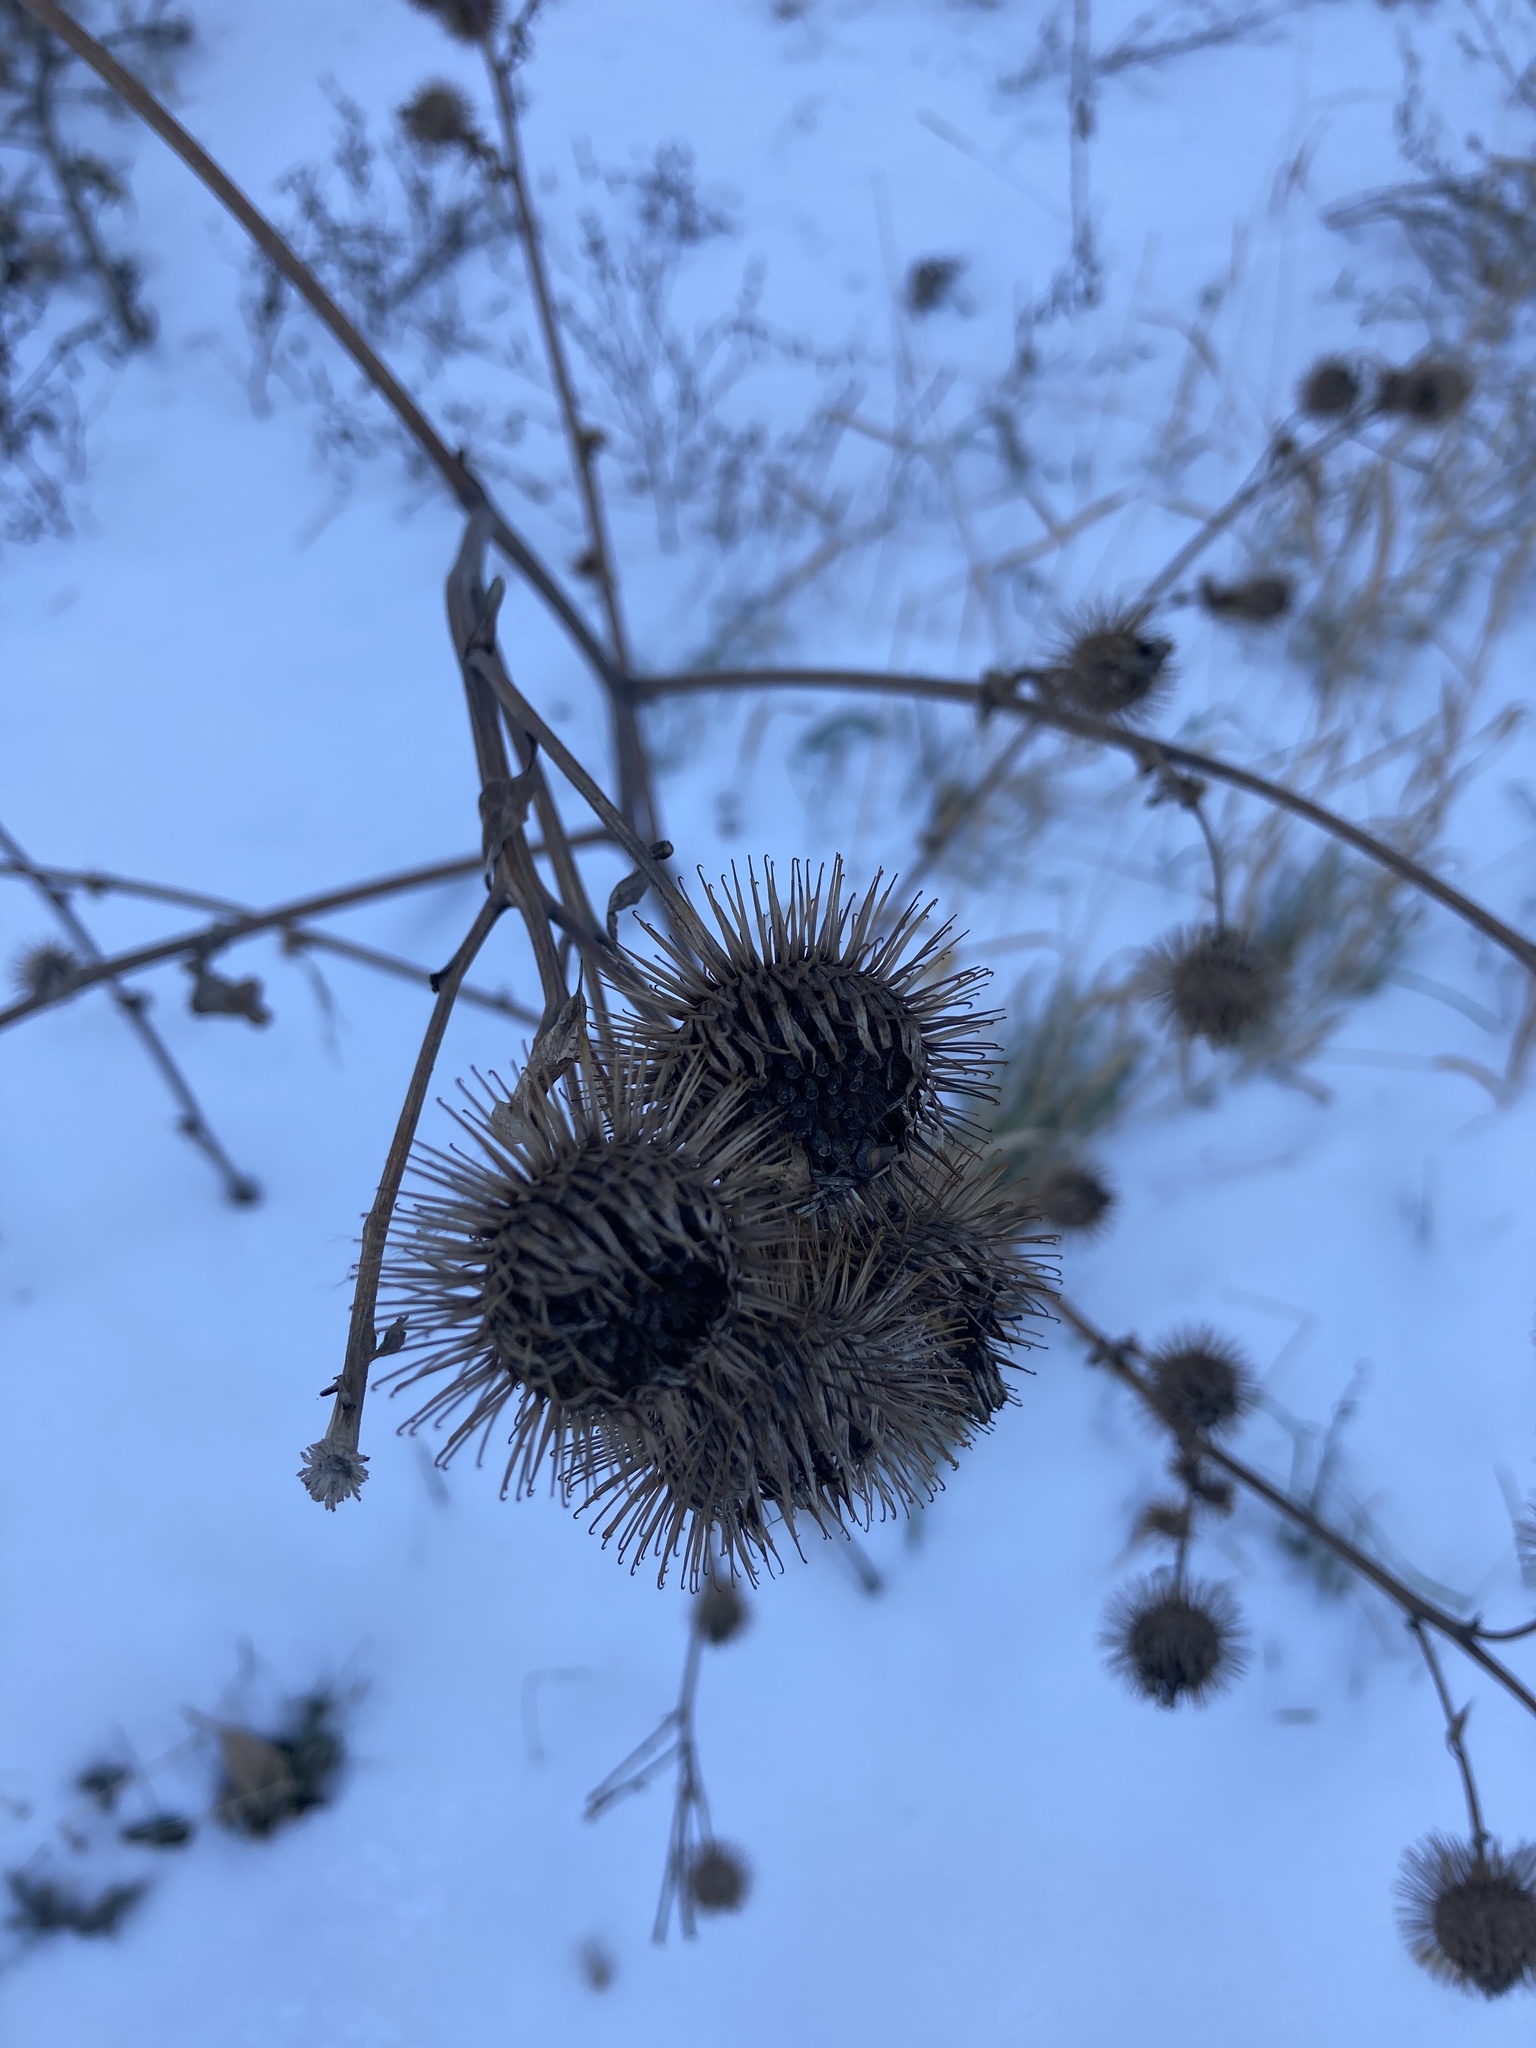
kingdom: Plantae
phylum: Tracheophyta
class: Magnoliopsida
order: Asterales
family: Asteraceae
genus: Arctium
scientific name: Arctium tomentosum
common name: Woolly burdock
